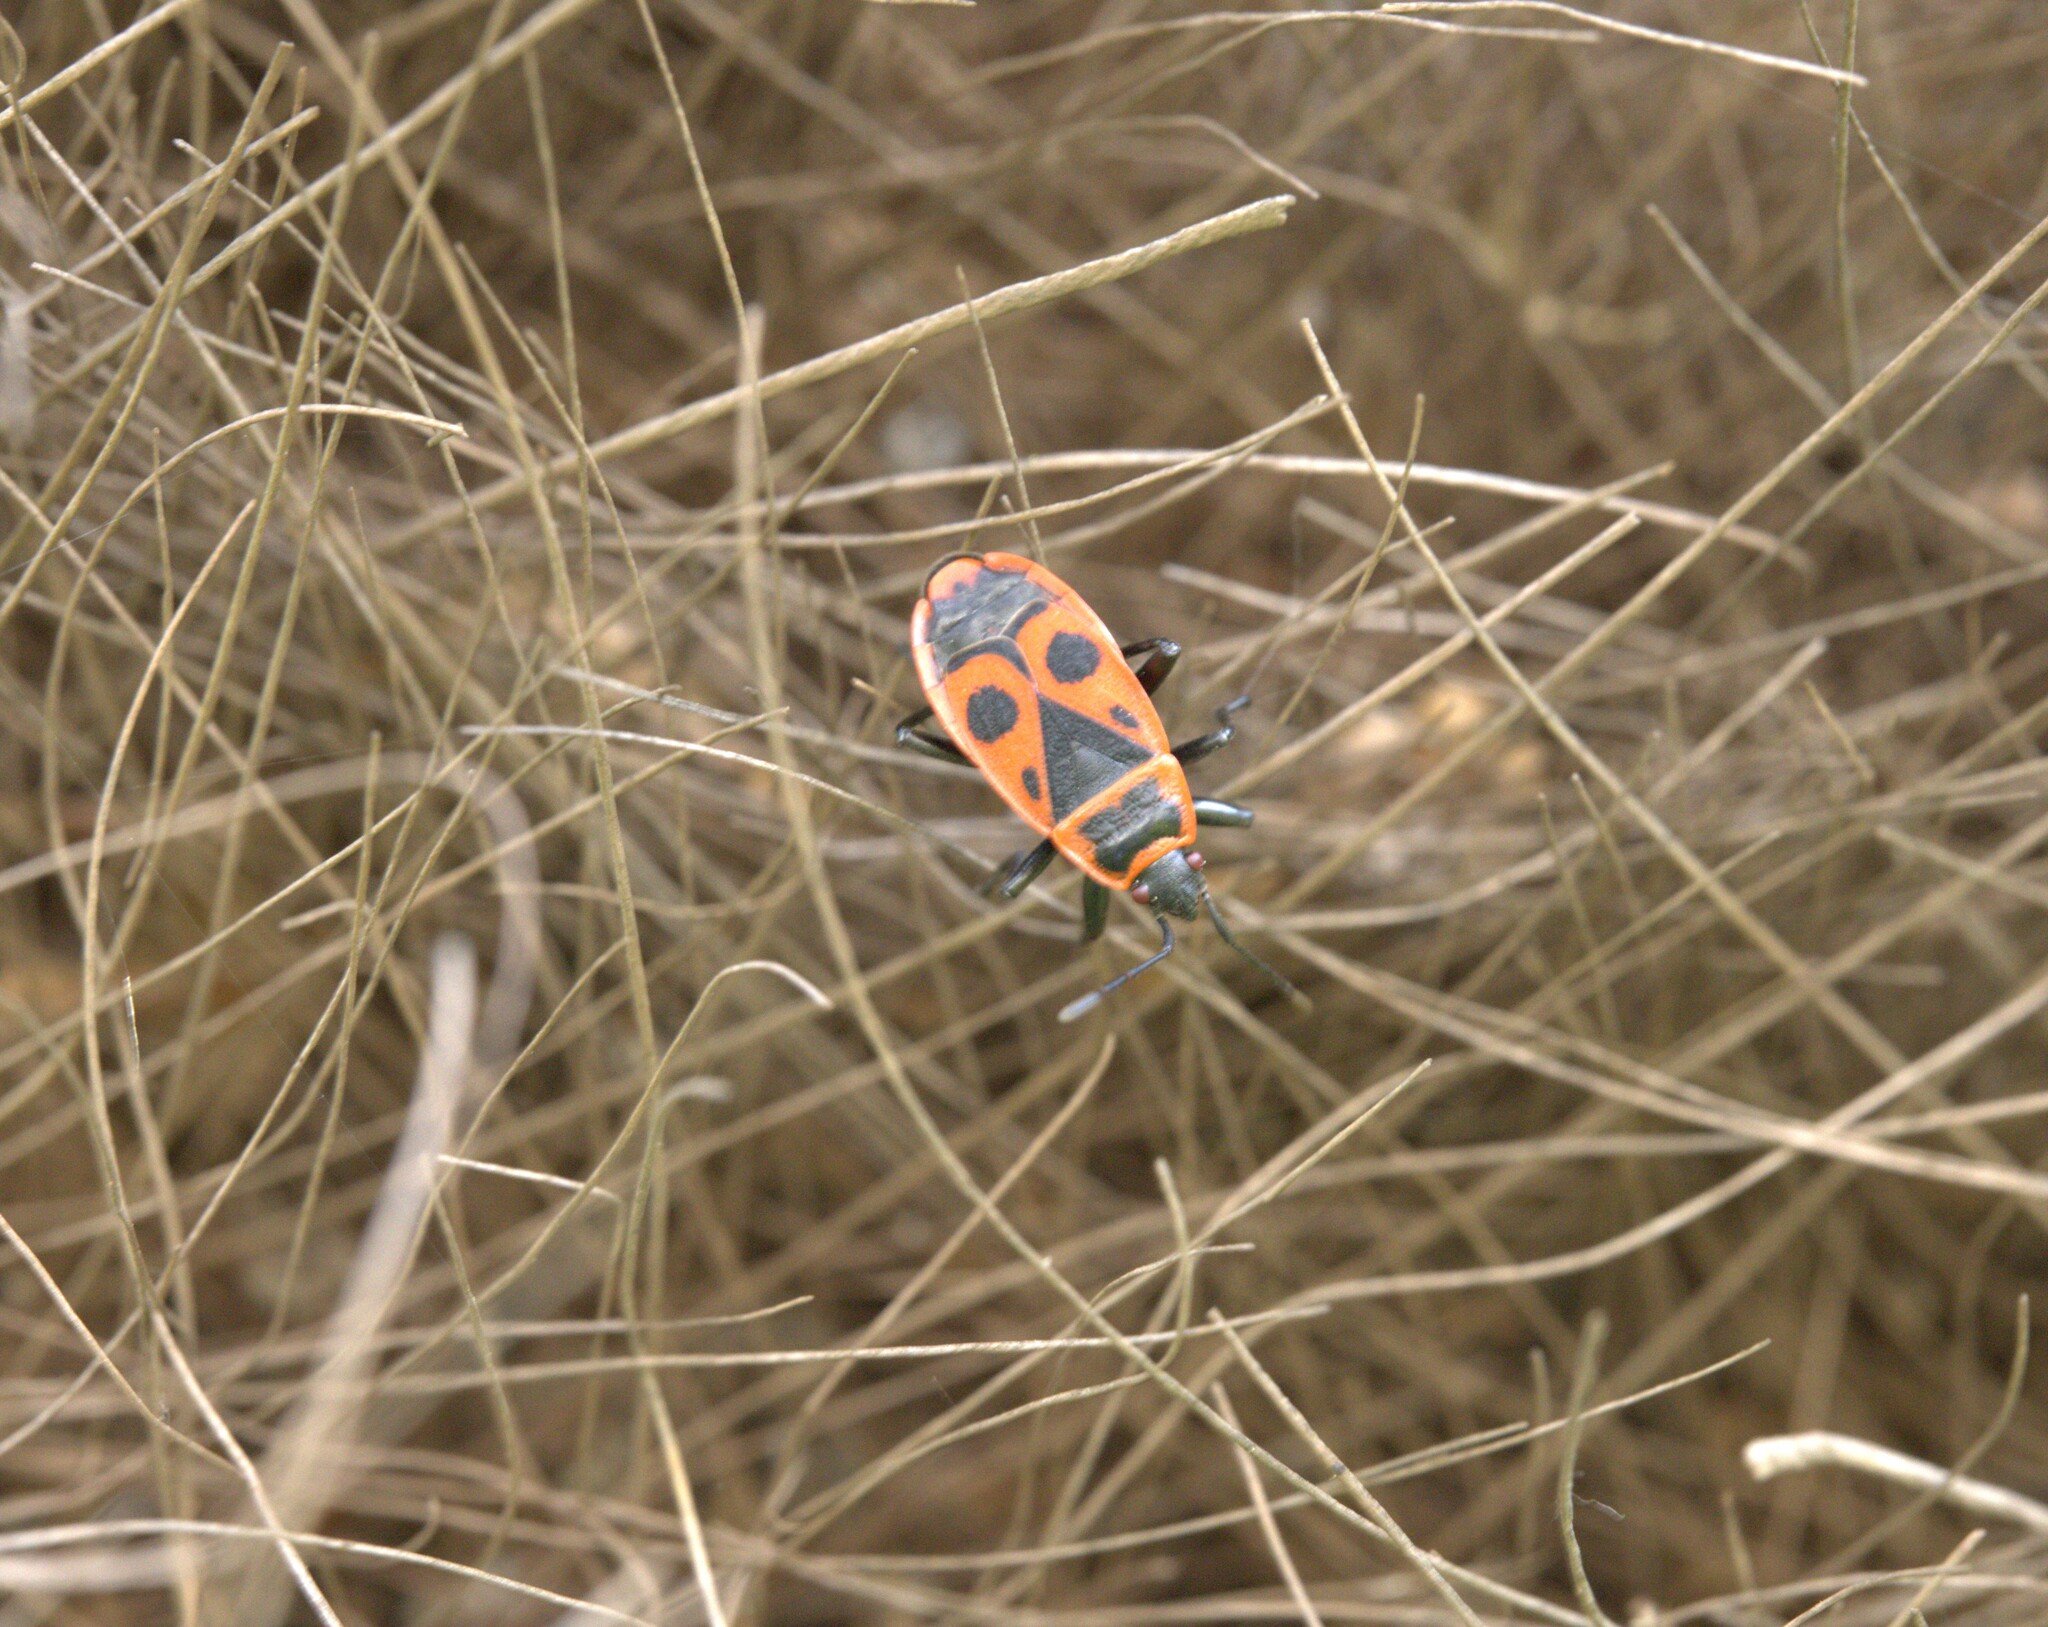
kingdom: Animalia
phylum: Arthropoda
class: Insecta
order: Hemiptera
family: Pyrrhocoridae
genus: Pyrrhocoris
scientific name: Pyrrhocoris apterus
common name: Firebug
